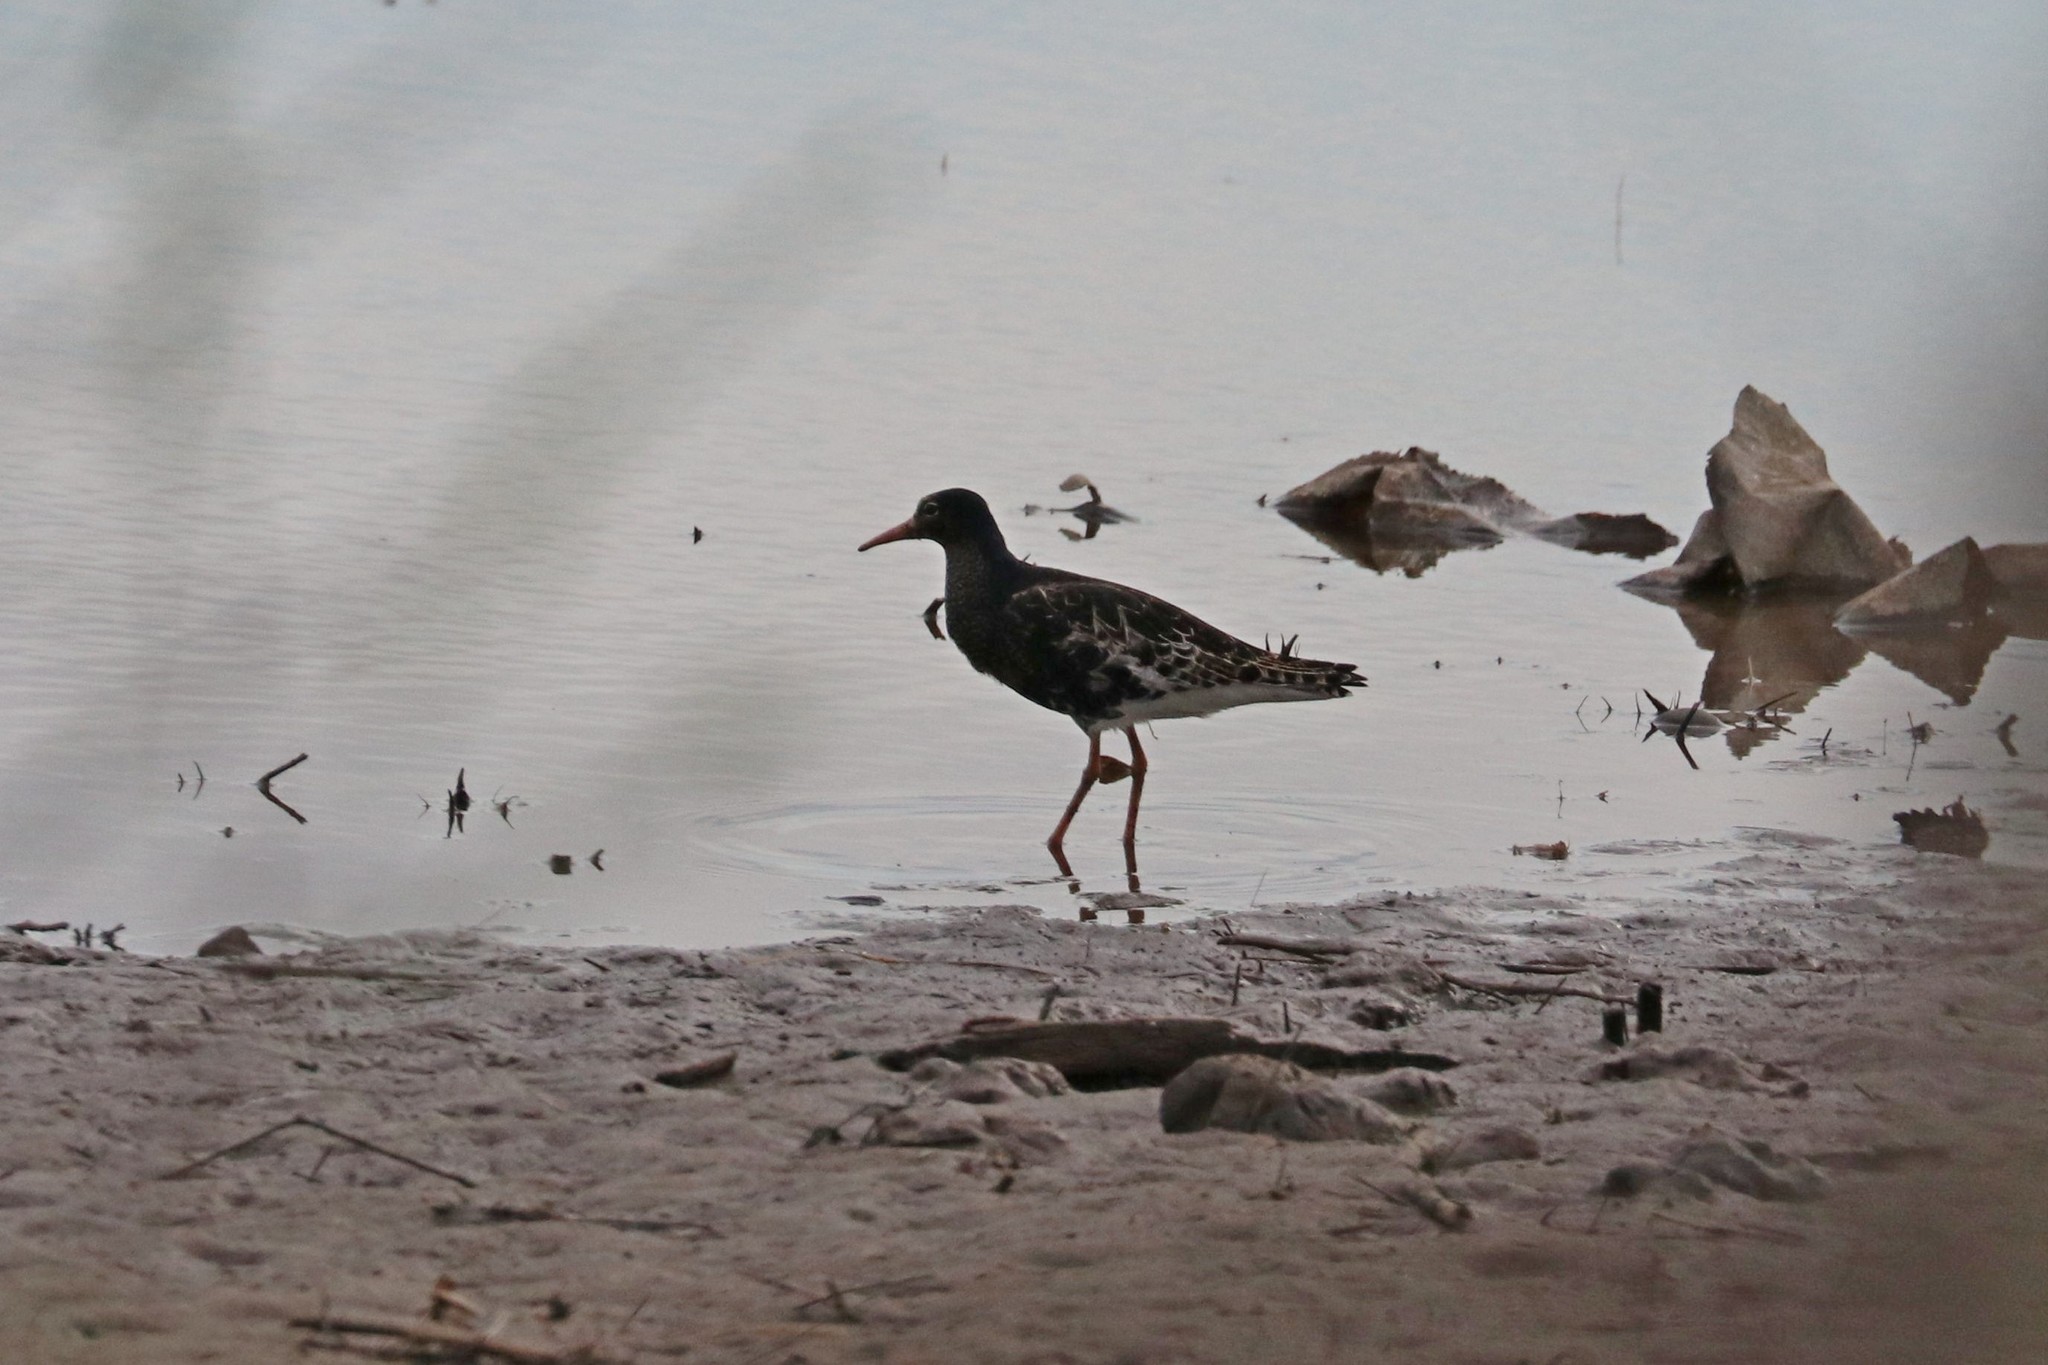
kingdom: Animalia
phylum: Chordata
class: Aves
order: Charadriiformes
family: Scolopacidae
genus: Calidris
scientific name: Calidris pugnax
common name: Ruff
